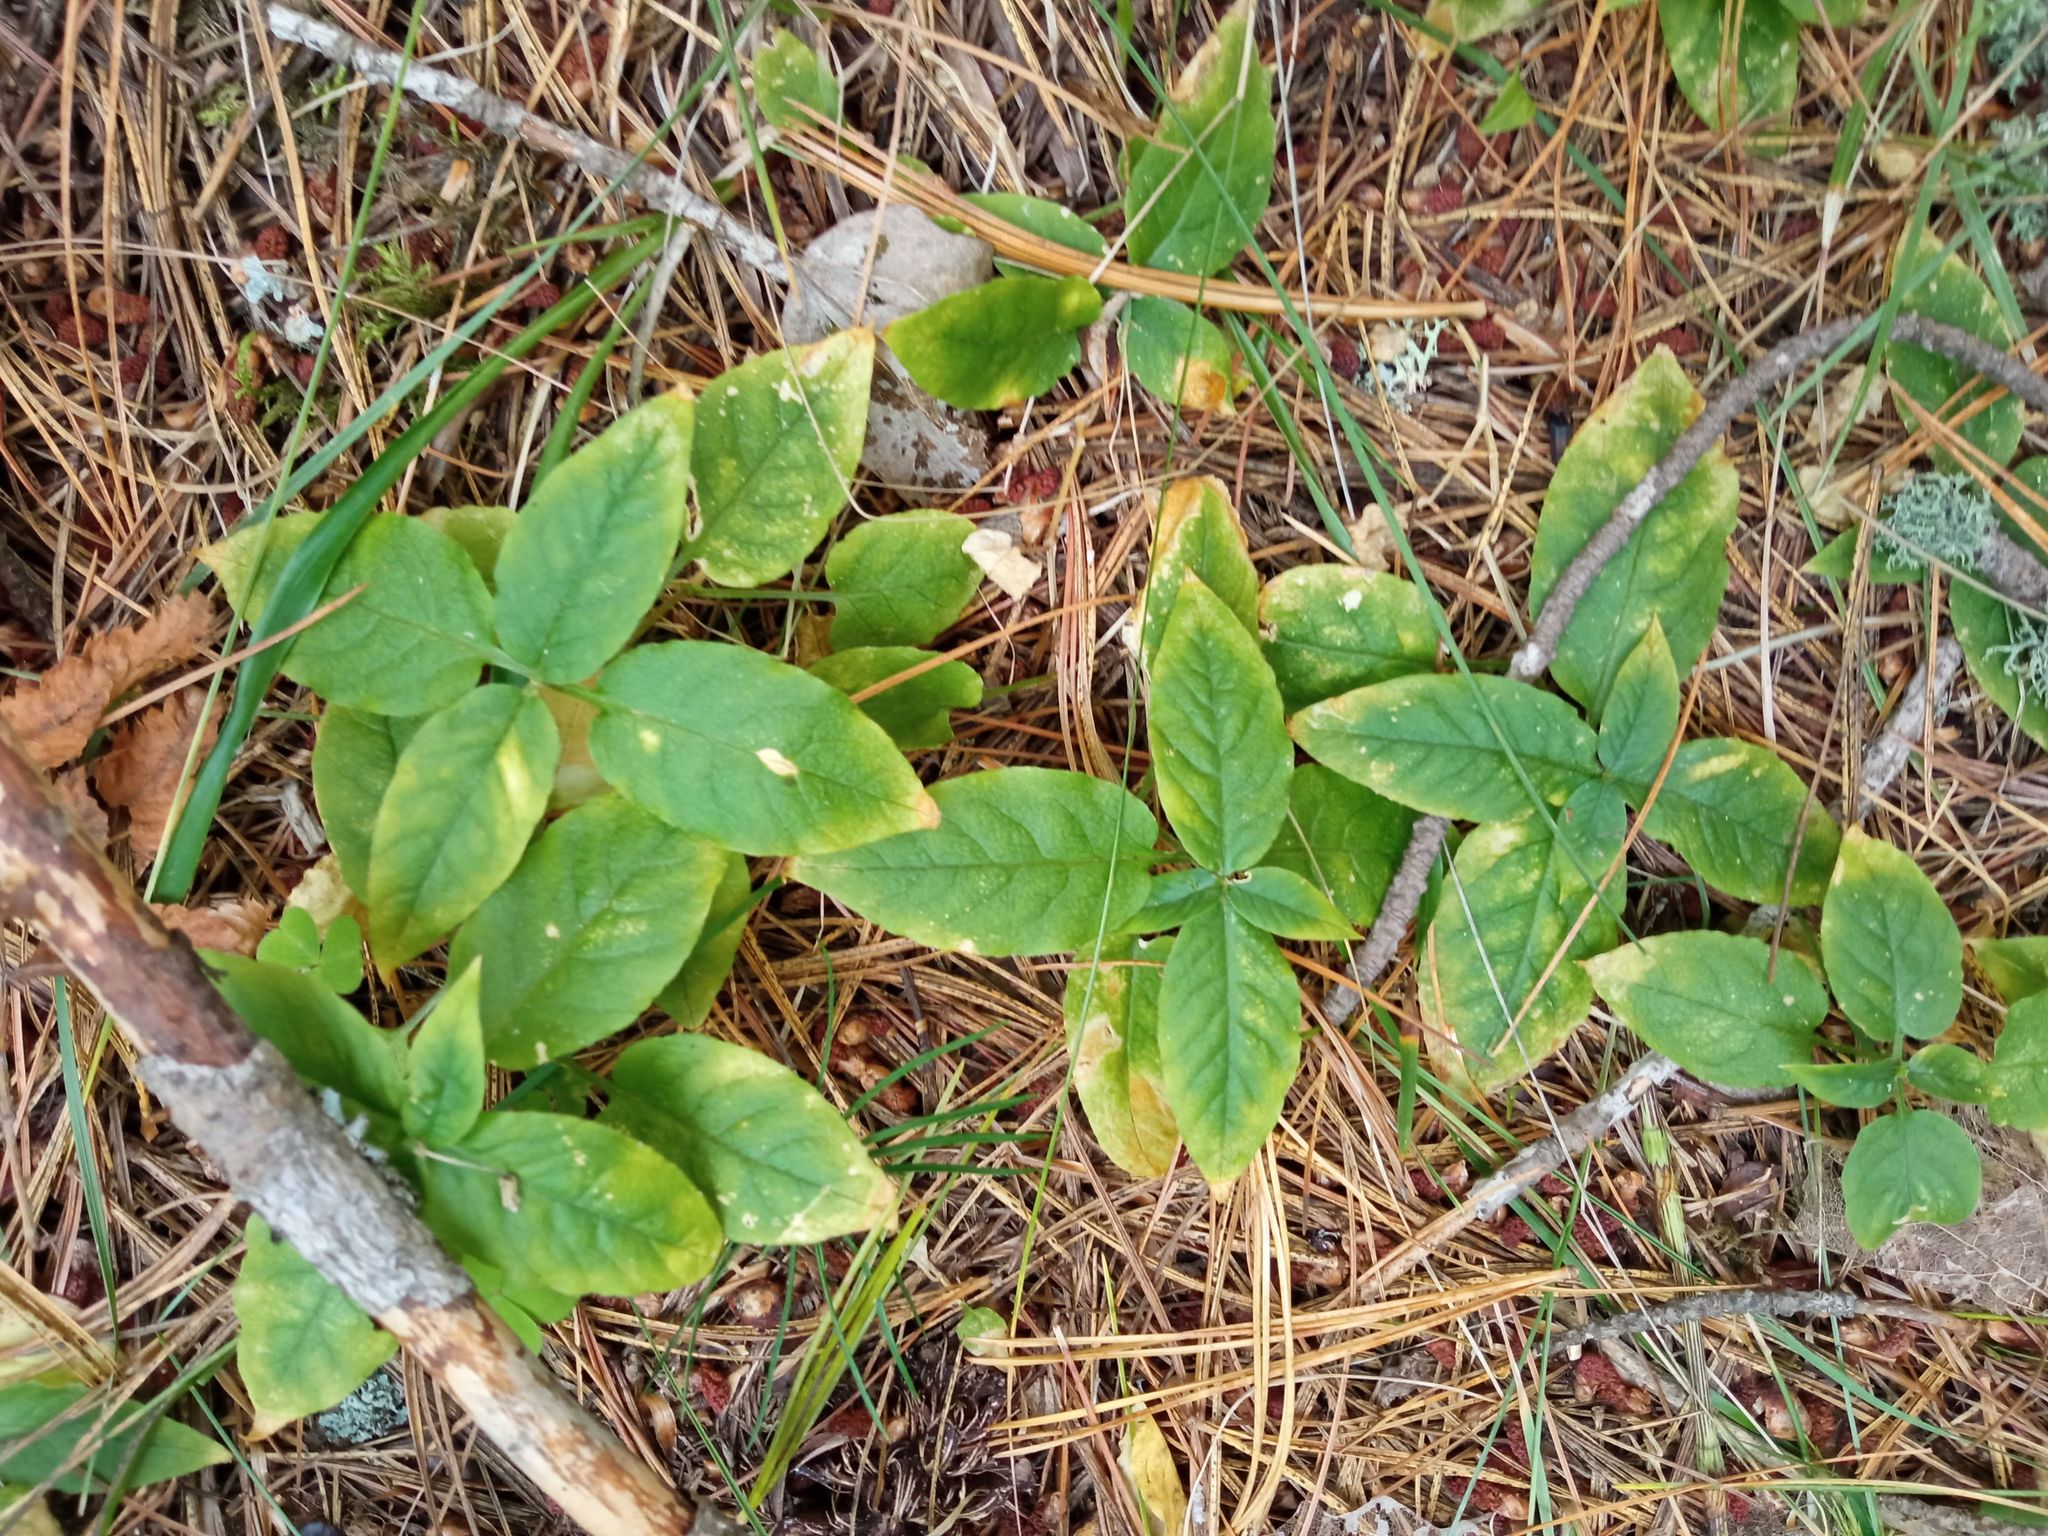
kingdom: Plantae
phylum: Tracheophyta
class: Magnoliopsida
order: Caryophyllales
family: Caryophyllaceae
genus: Stellaria
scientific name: Stellaria bungeana
